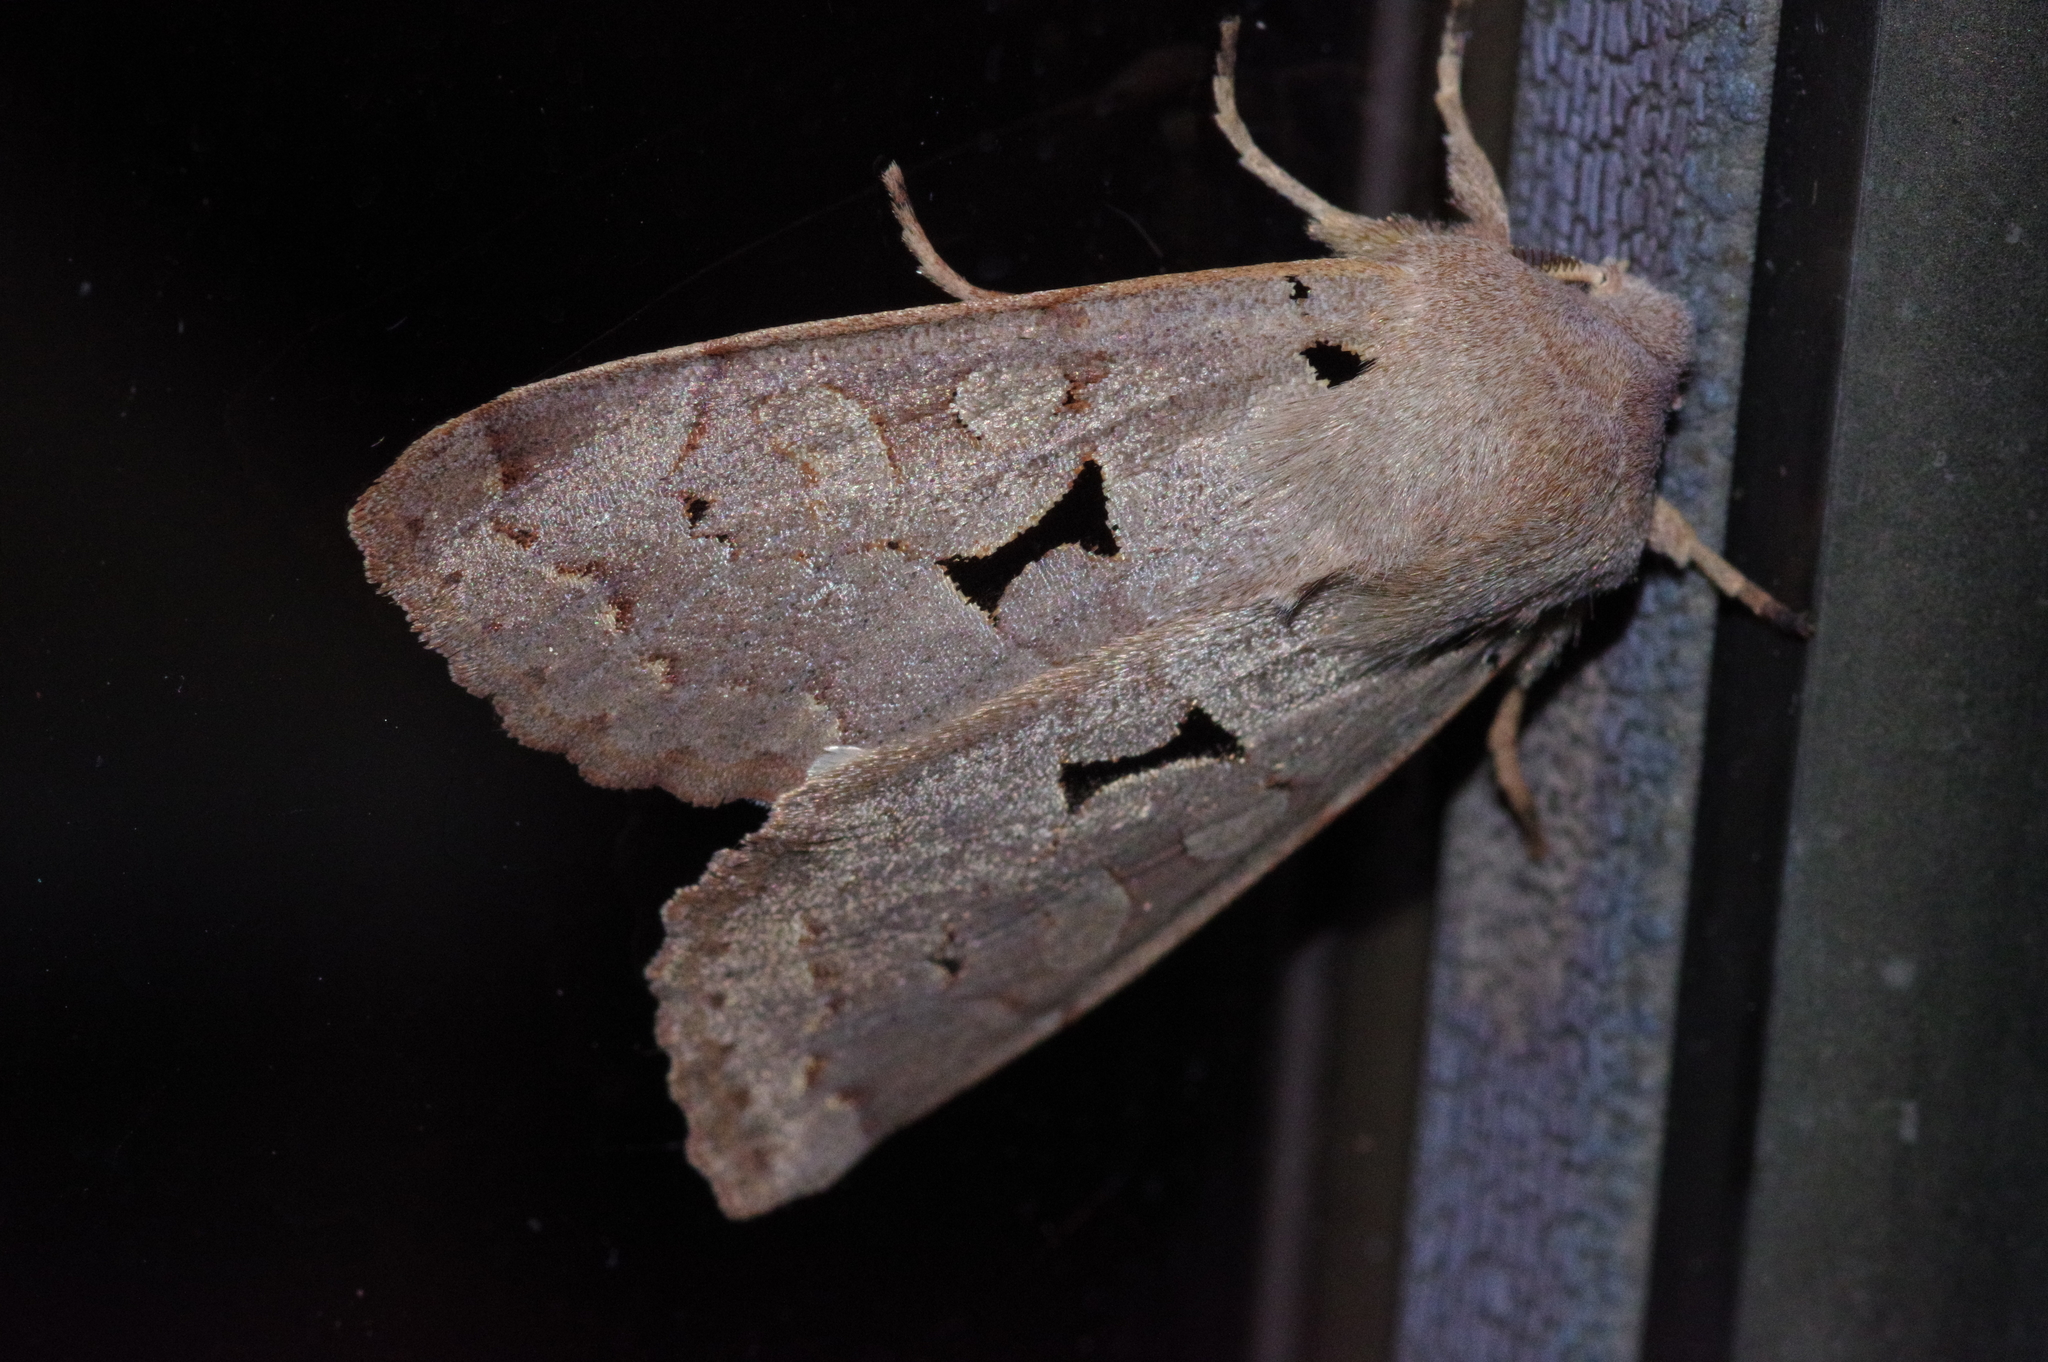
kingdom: Animalia
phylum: Arthropoda
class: Insecta
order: Lepidoptera
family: Noctuidae
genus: Orthosia
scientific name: Orthosia carnipennis
